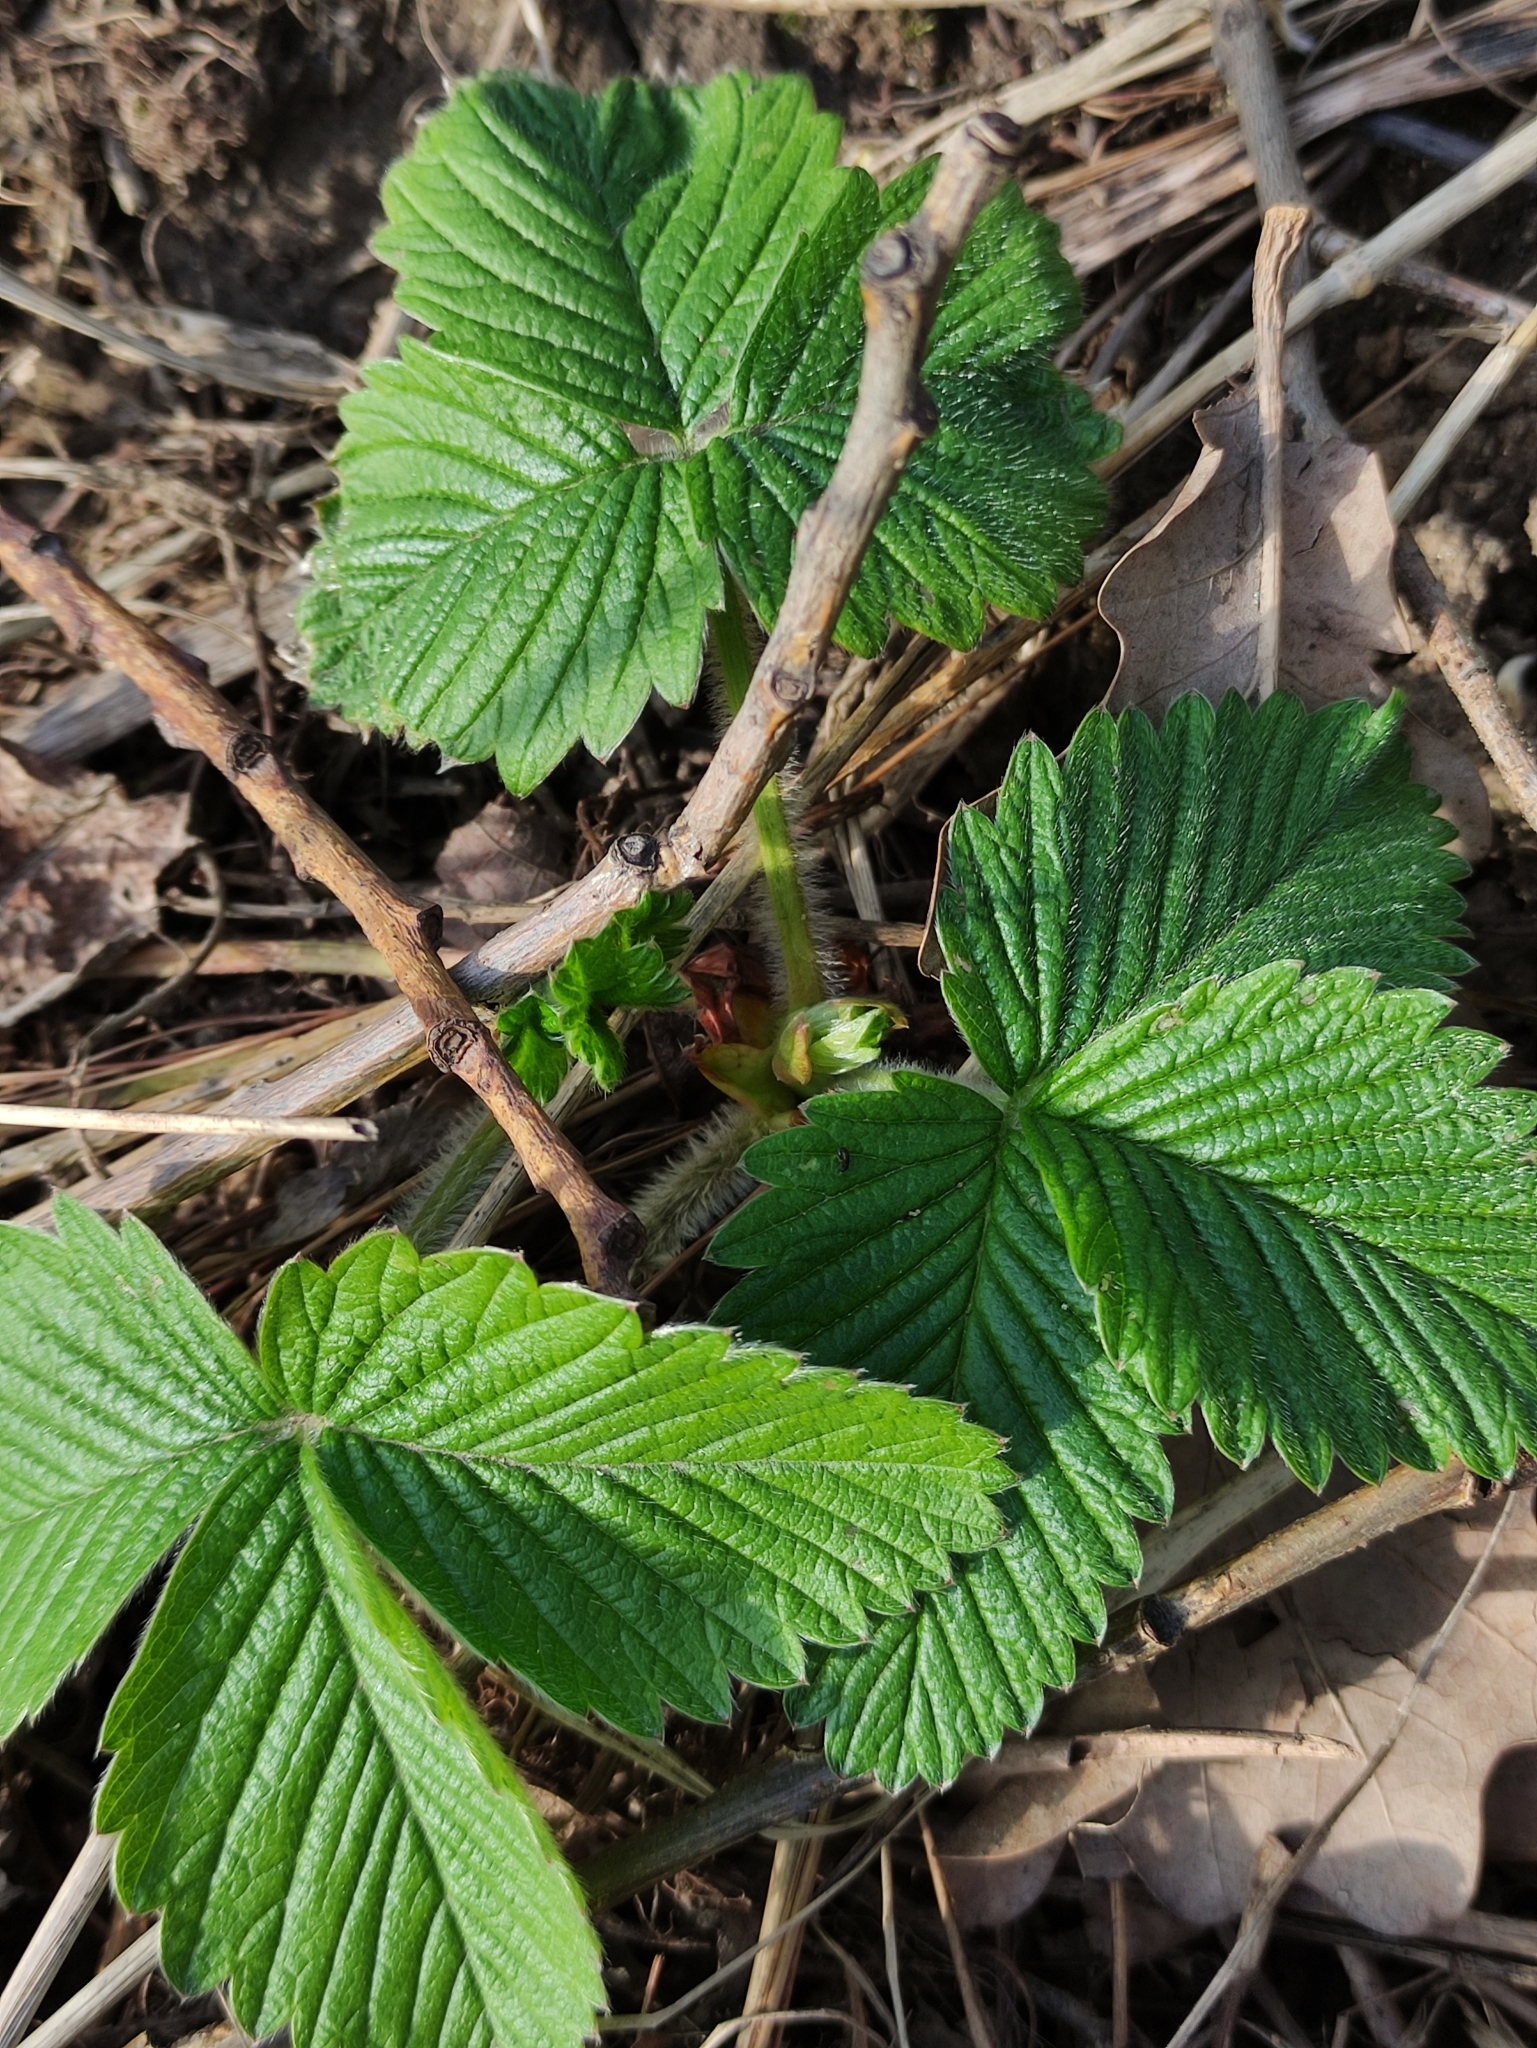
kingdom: Plantae
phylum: Tracheophyta
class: Magnoliopsida
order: Rosales
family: Rosaceae
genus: Fragaria
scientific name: Fragaria moschata
